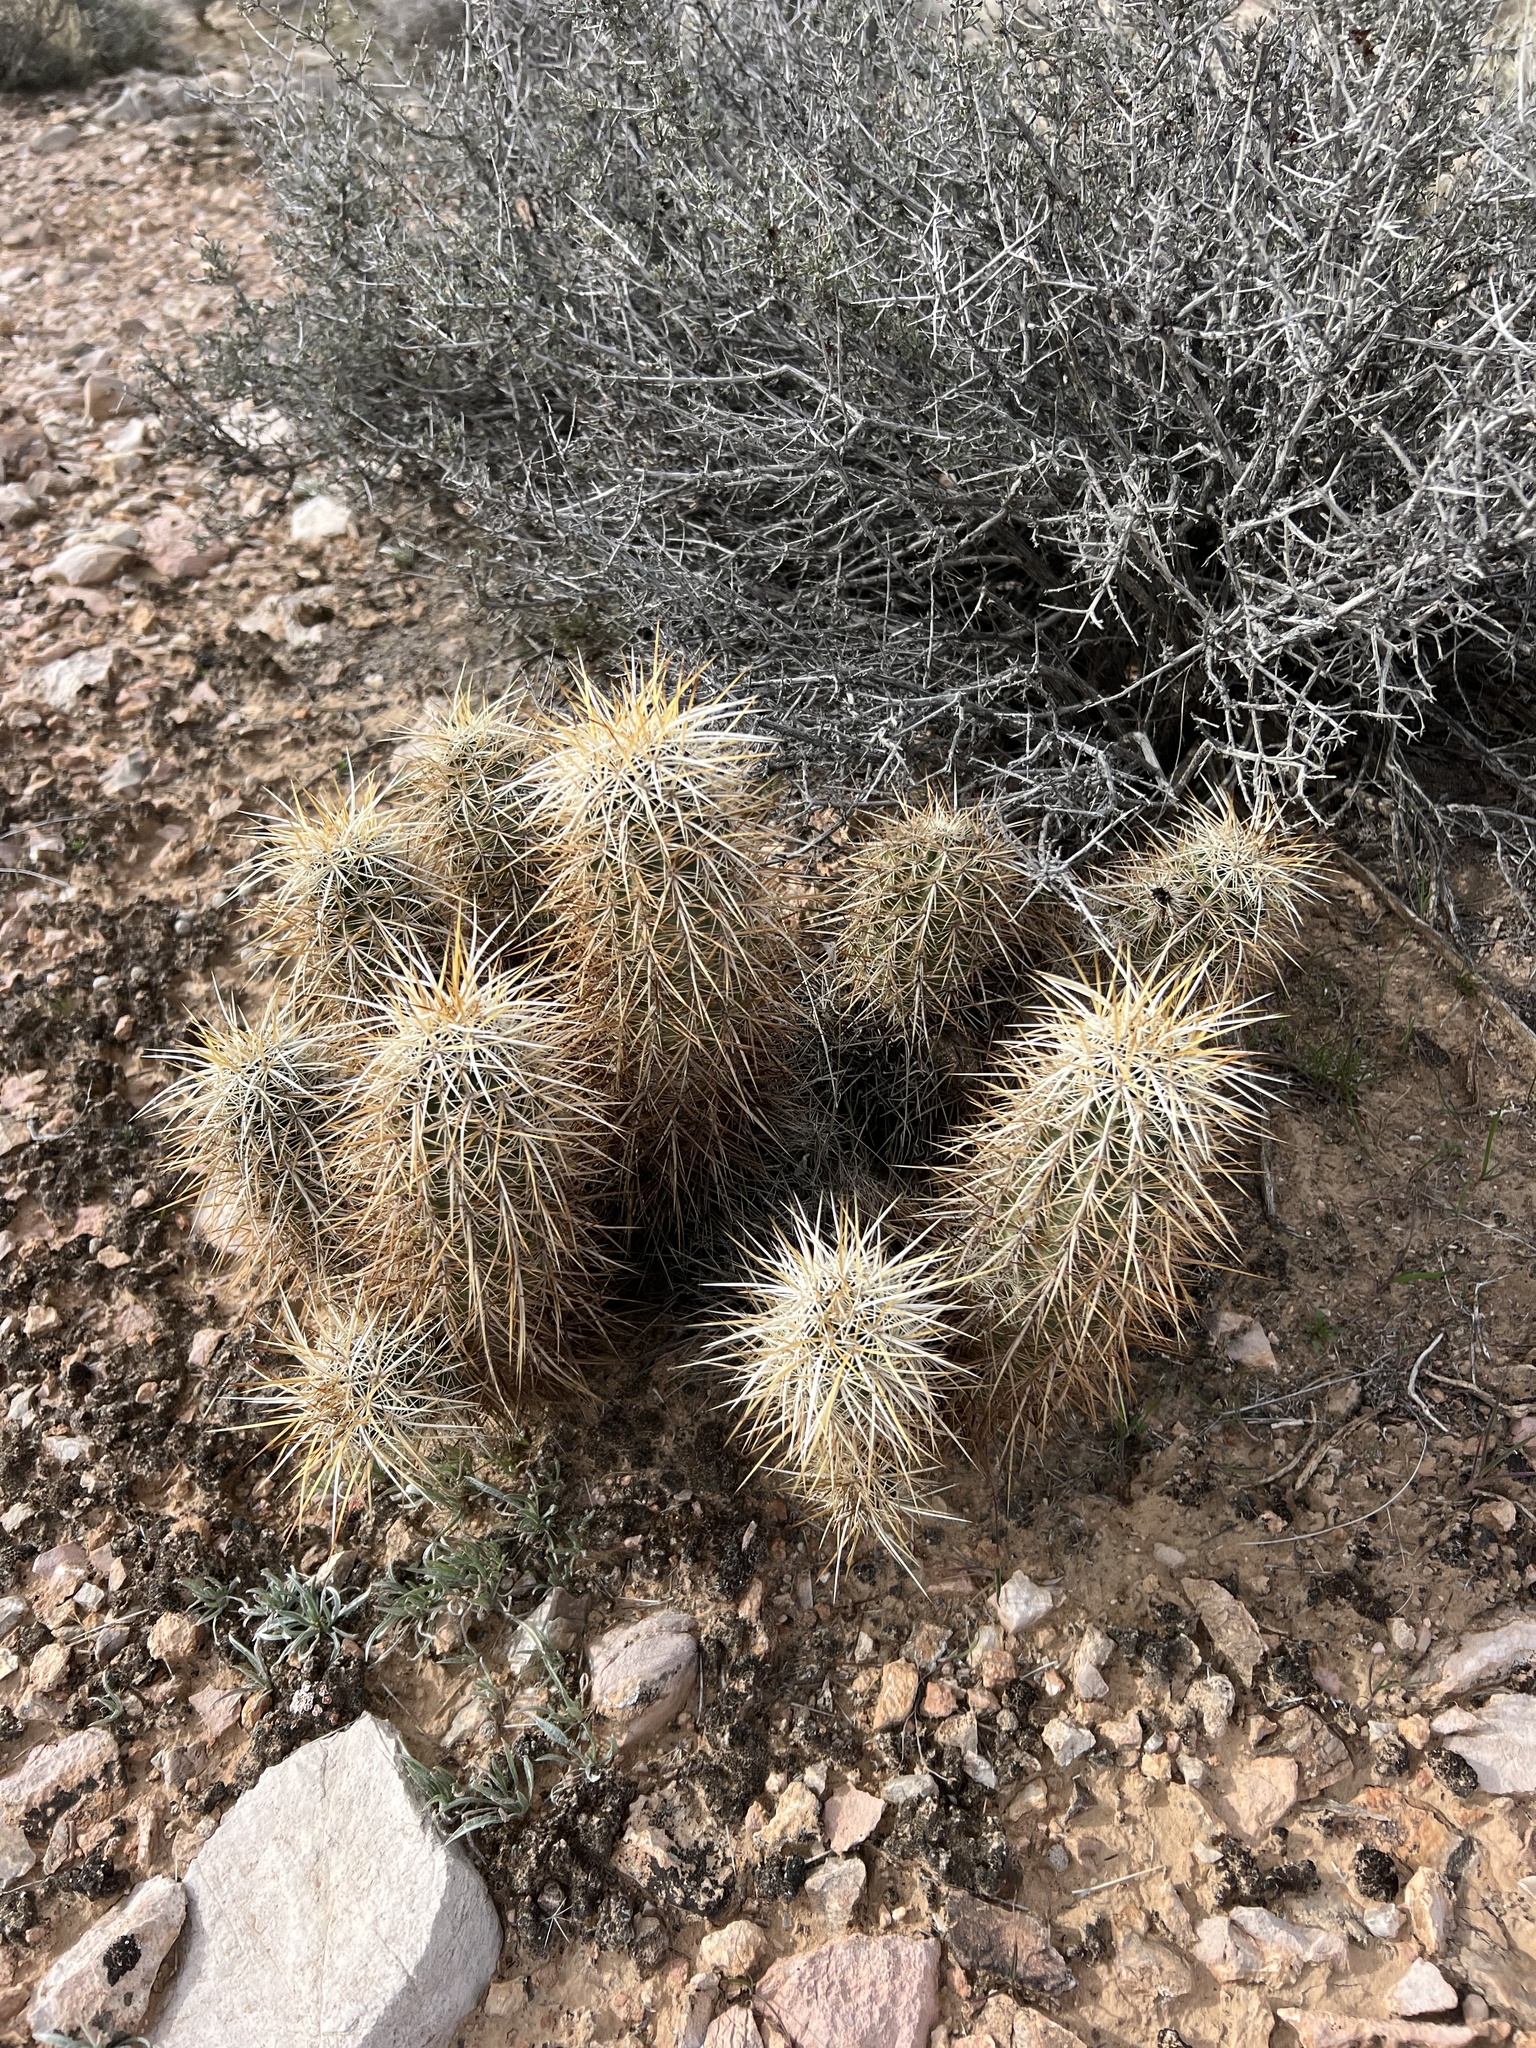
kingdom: Plantae
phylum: Tracheophyta
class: Magnoliopsida
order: Caryophyllales
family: Cactaceae
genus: Echinocereus
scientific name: Echinocereus engelmannii
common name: Engelmann's hedgehog cactus
